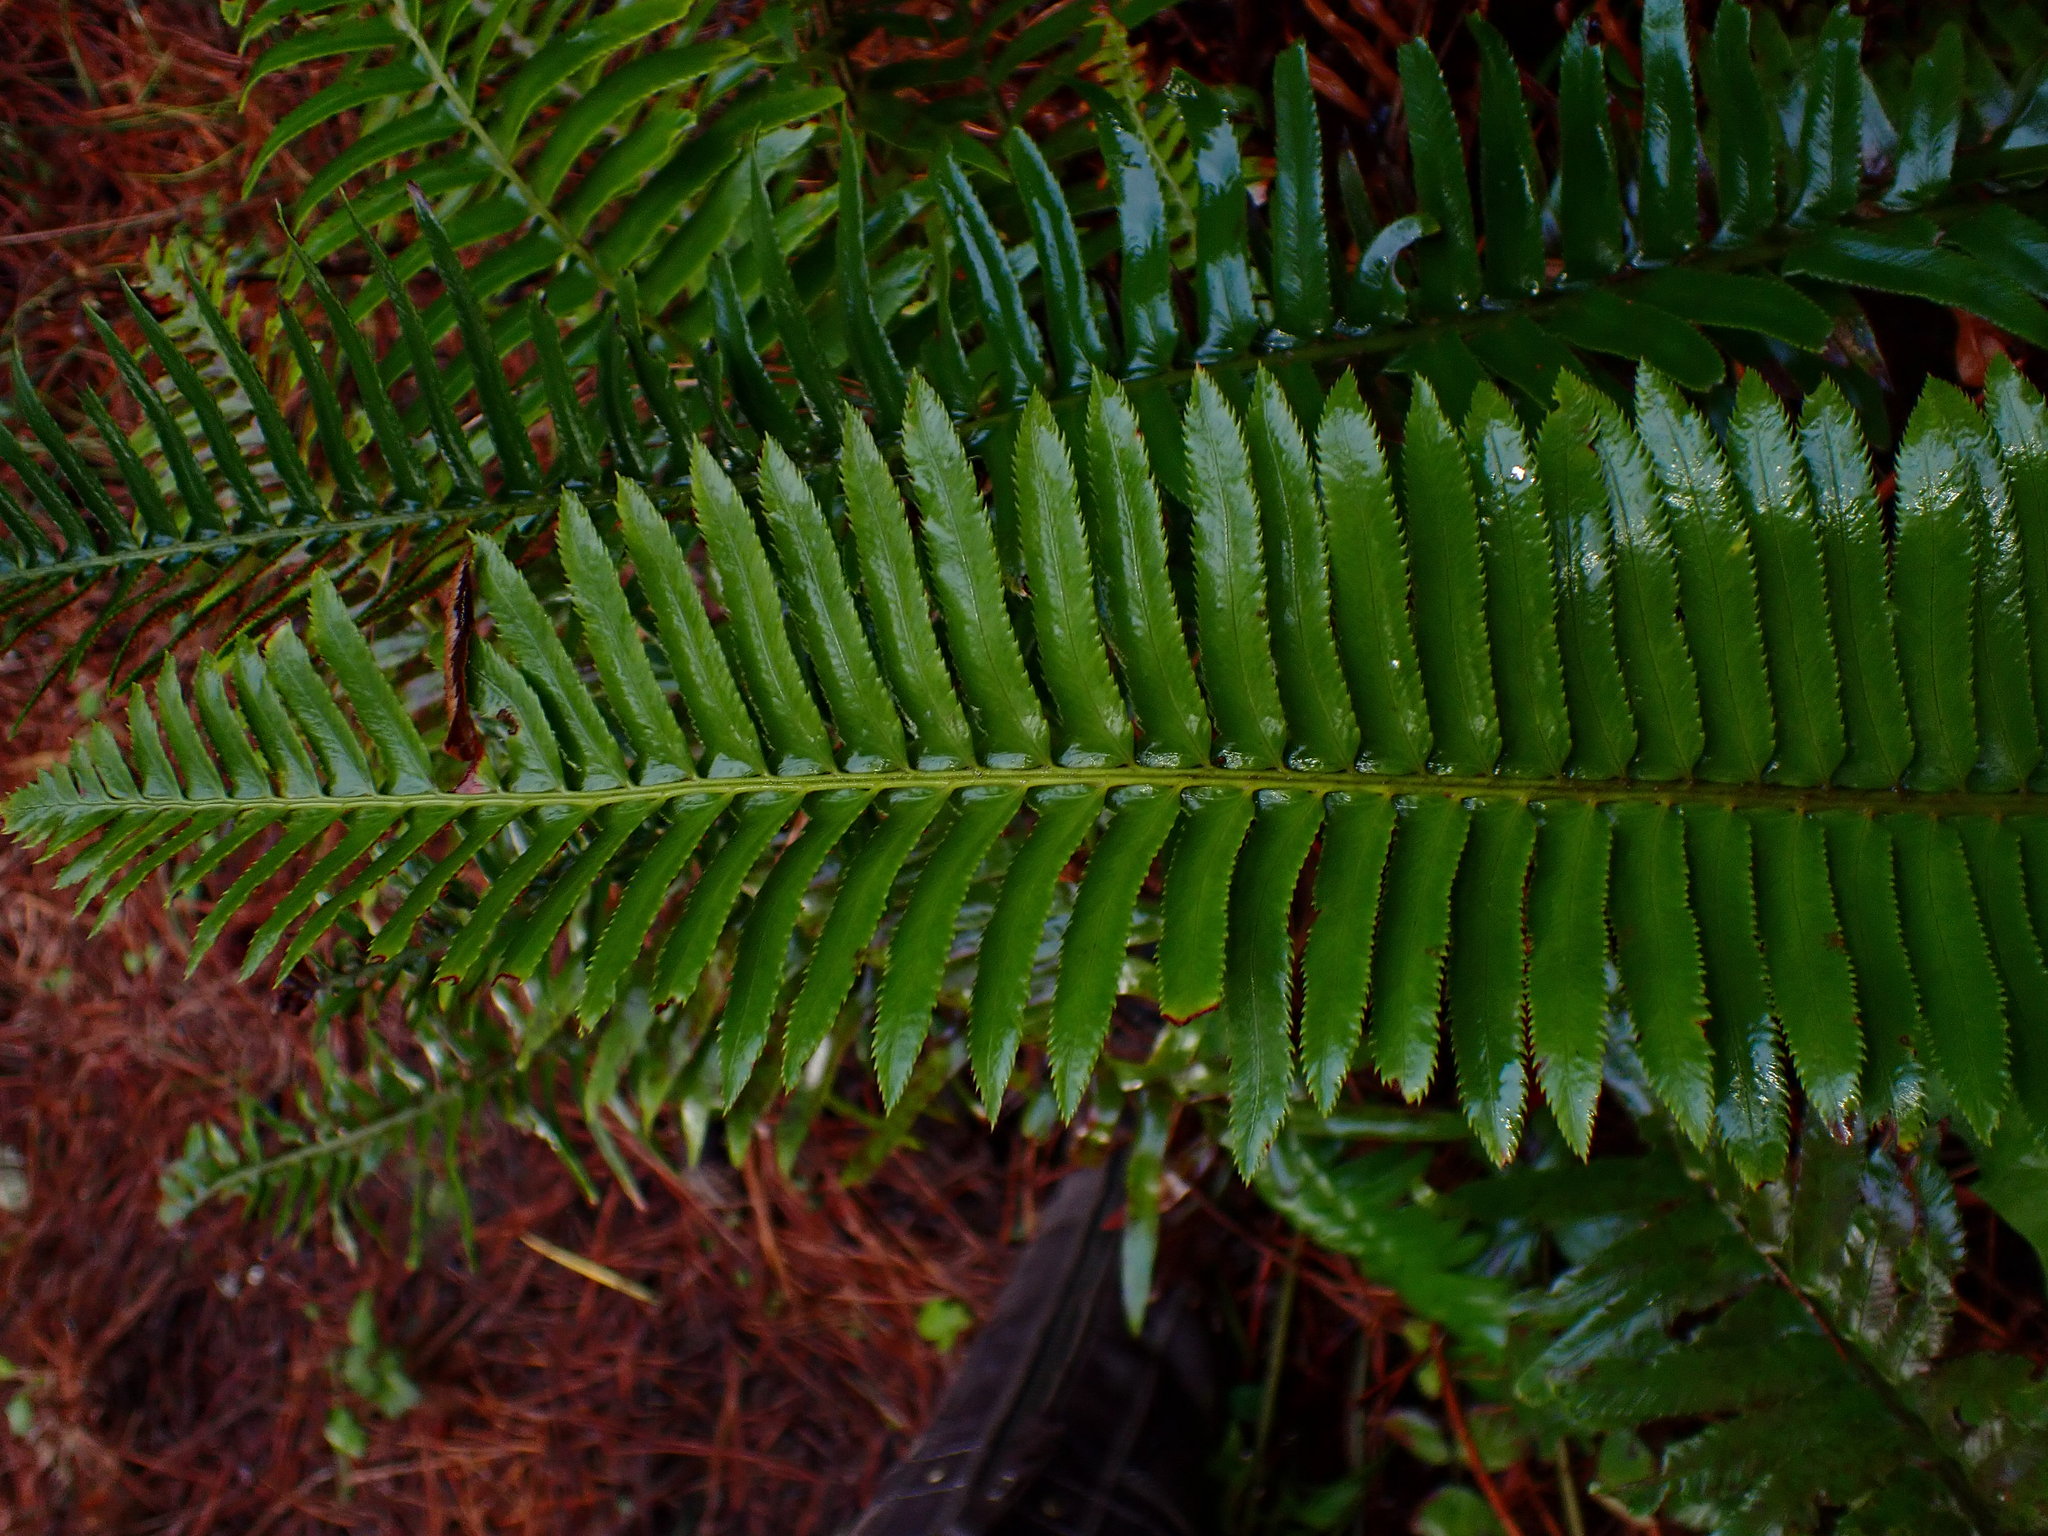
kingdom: Plantae
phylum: Tracheophyta
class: Polypodiopsida
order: Polypodiales
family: Dryopteridaceae
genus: Polystichum
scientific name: Polystichum munitum
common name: Western sword-fern
